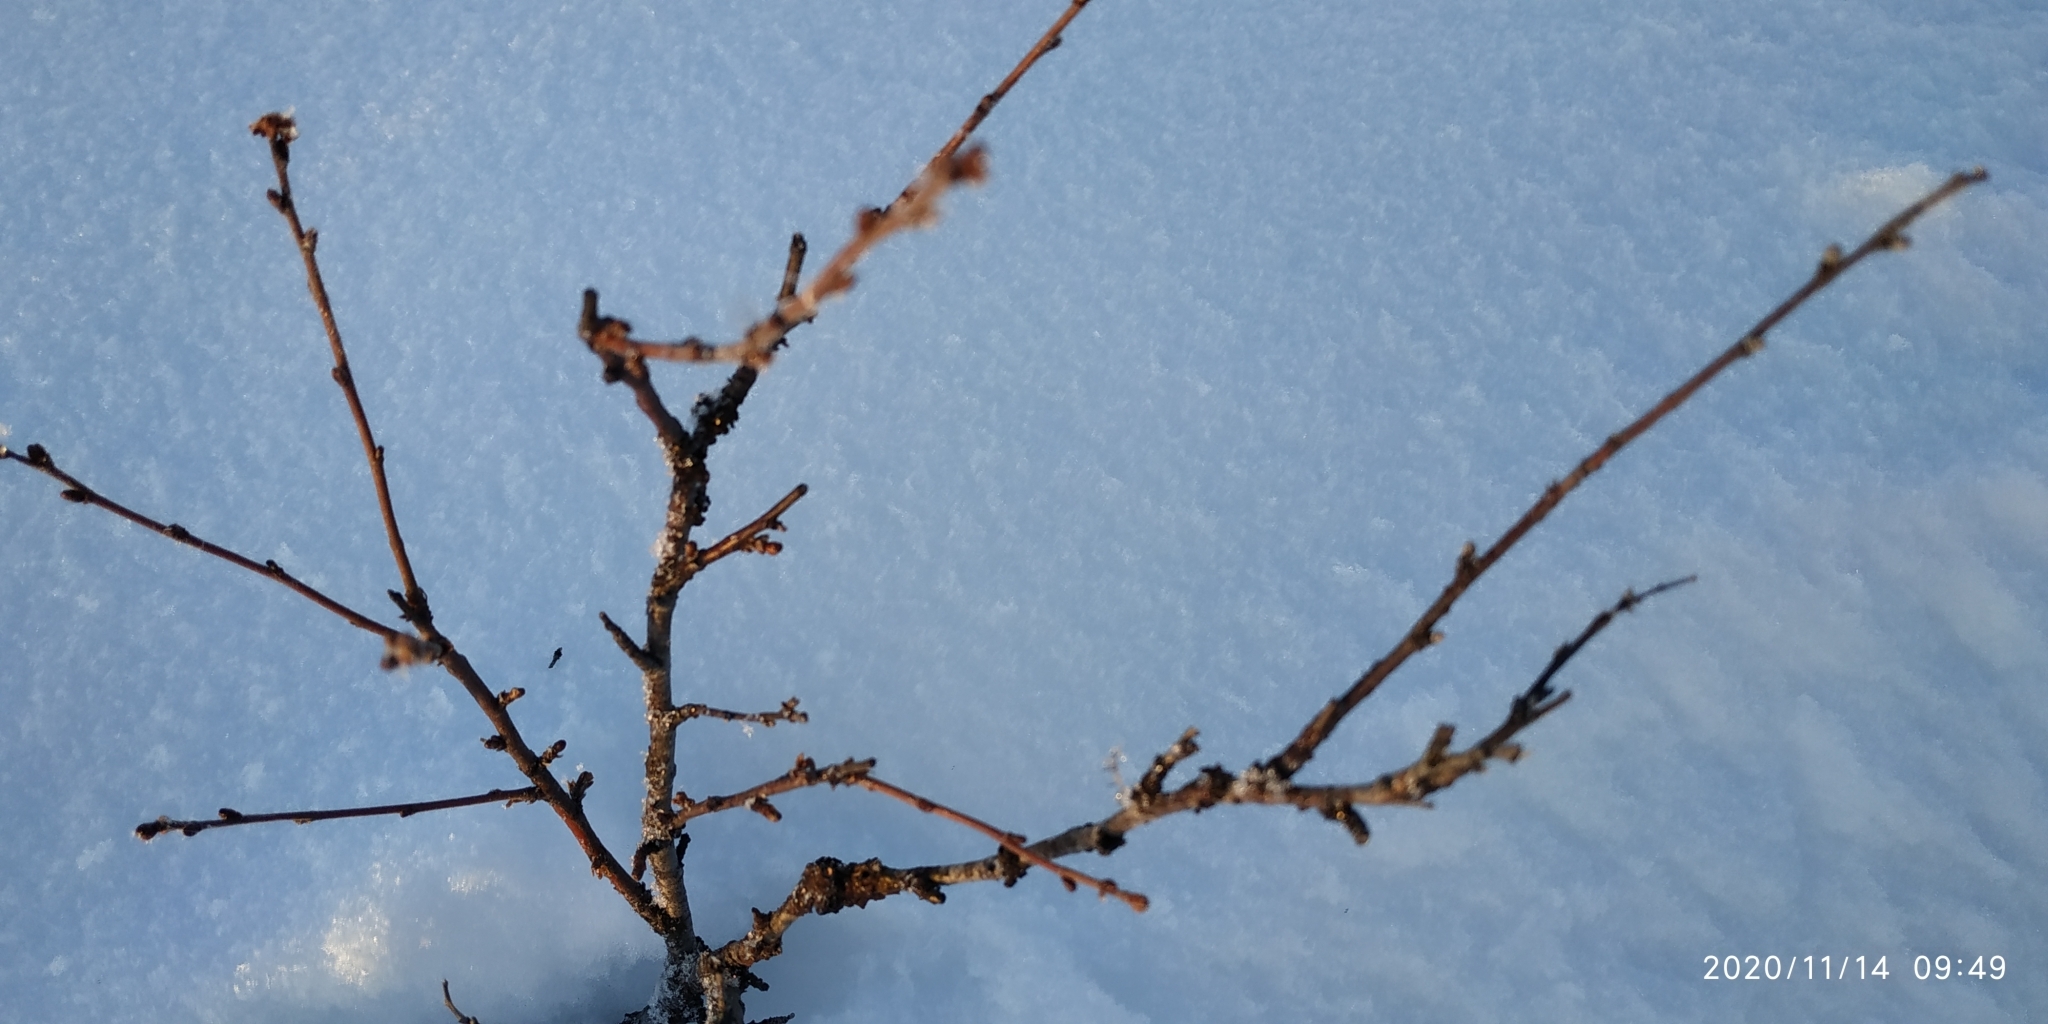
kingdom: Plantae
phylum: Tracheophyta
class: Magnoliopsida
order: Fagales
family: Betulaceae
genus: Betula
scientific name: Betula nana
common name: Arctic dwarf birch
